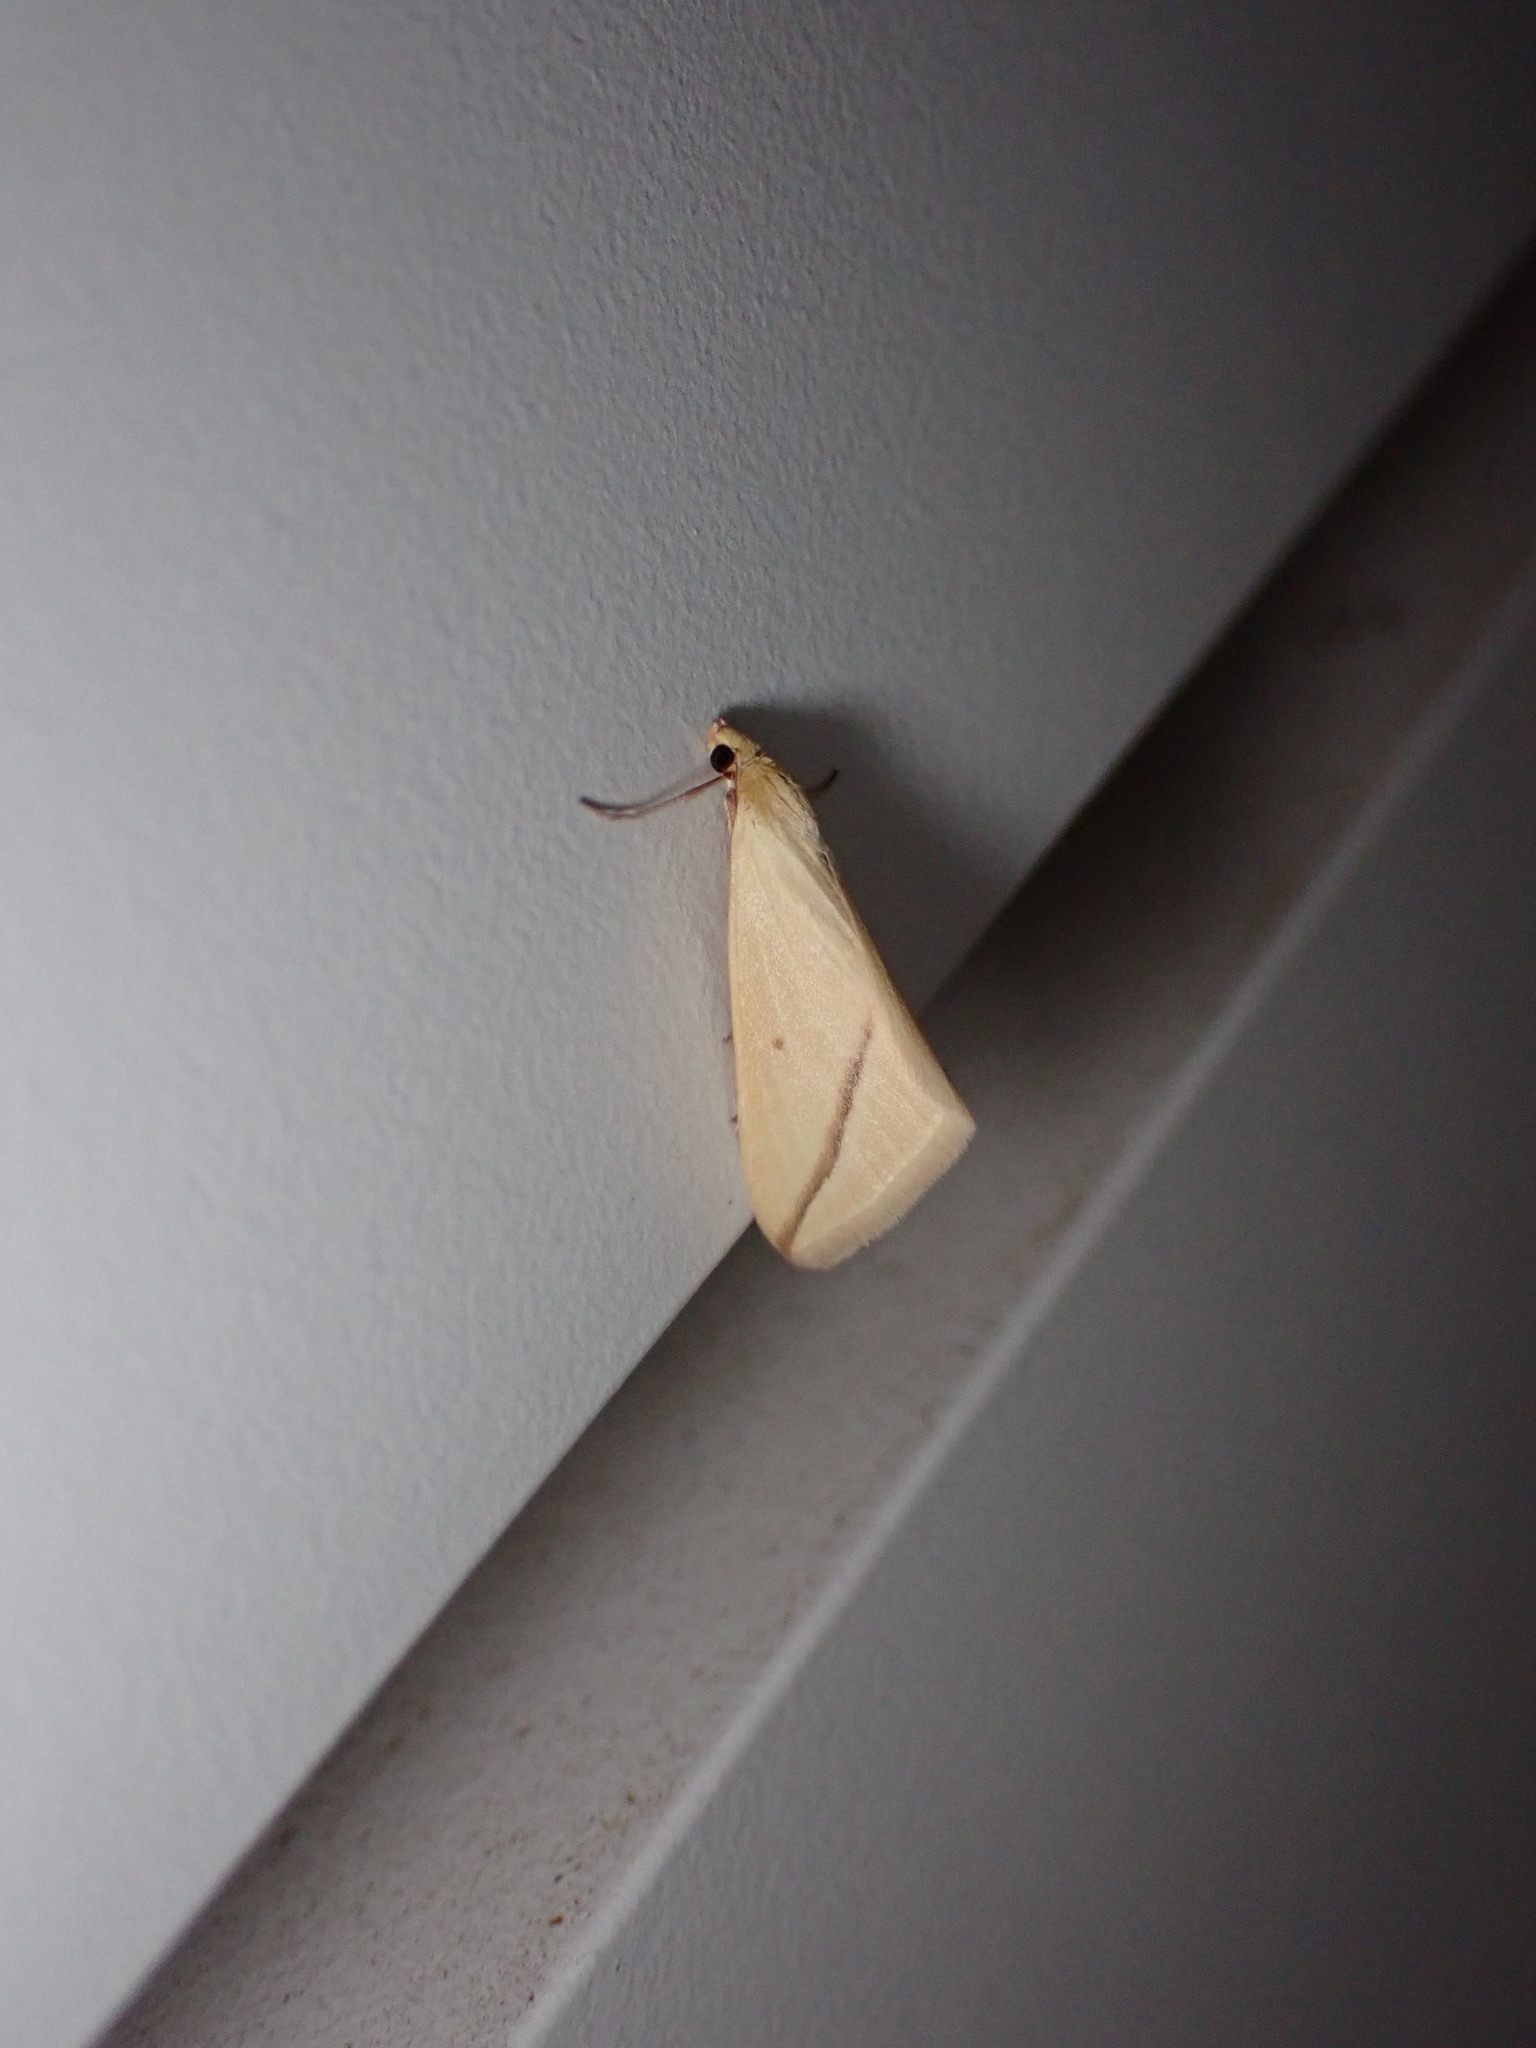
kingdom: Animalia
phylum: Arthropoda
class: Insecta
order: Lepidoptera
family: Geometridae
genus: Rhodometra
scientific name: Rhodometra sacraria
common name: Vestal
